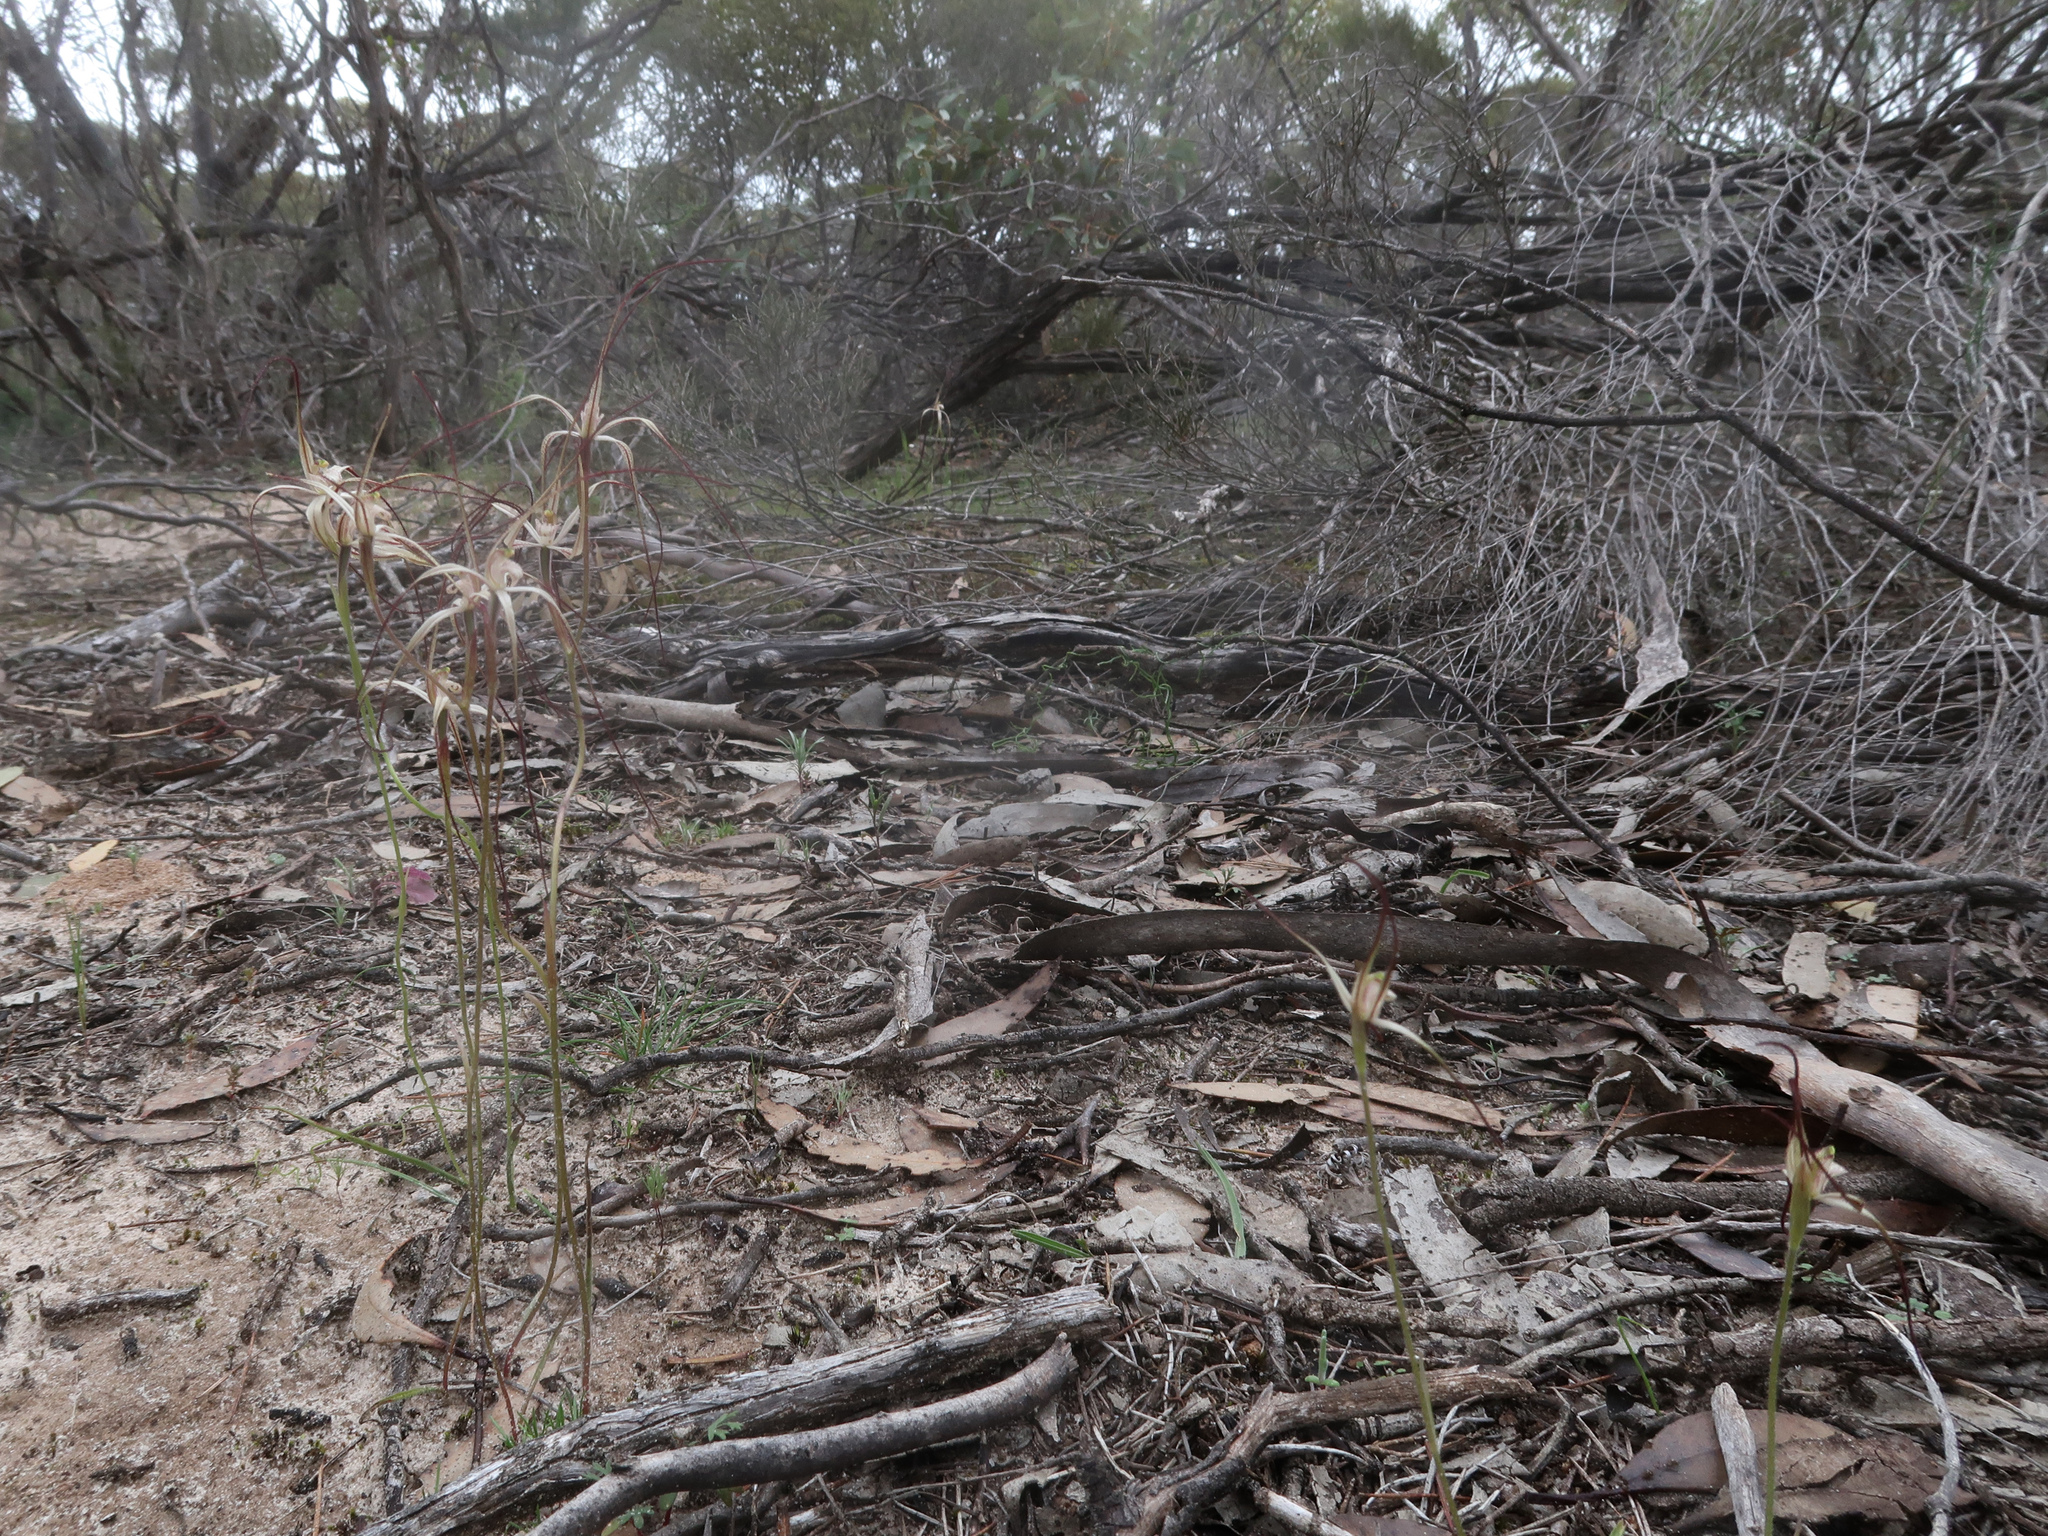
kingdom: Plantae
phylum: Tracheophyta
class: Liliopsida
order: Asparagales
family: Orchidaceae
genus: Caladenia
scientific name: Caladenia capillata
